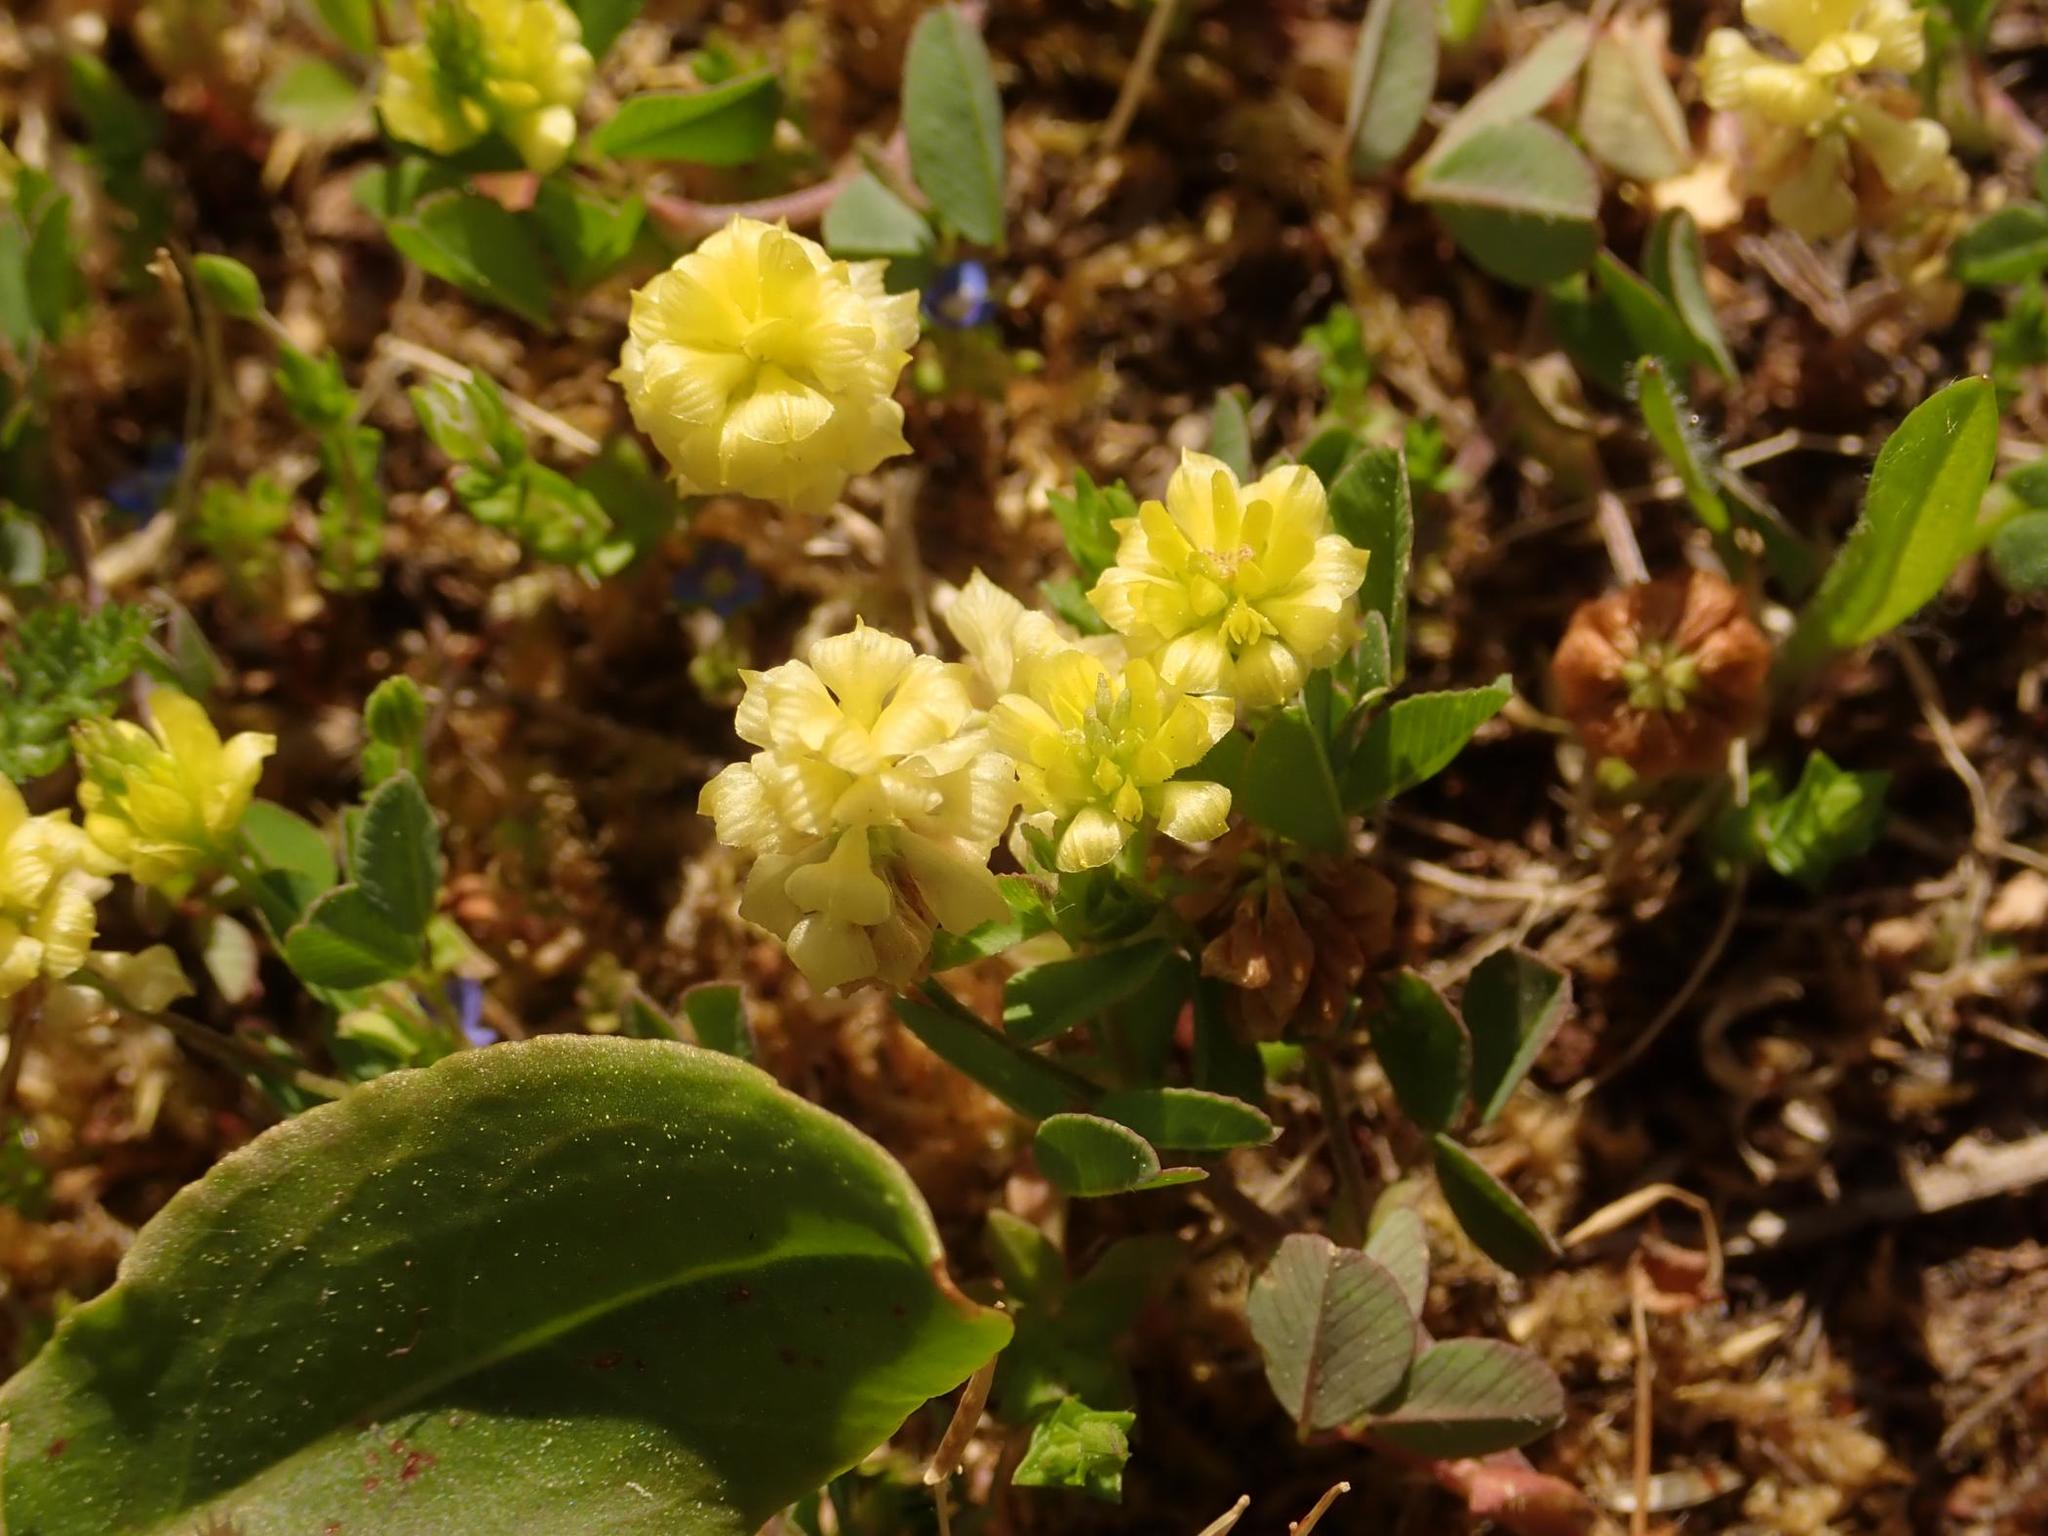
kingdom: Plantae
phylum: Tracheophyta
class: Magnoliopsida
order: Fabales
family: Fabaceae
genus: Trifolium
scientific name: Trifolium campestre
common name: Field clover
